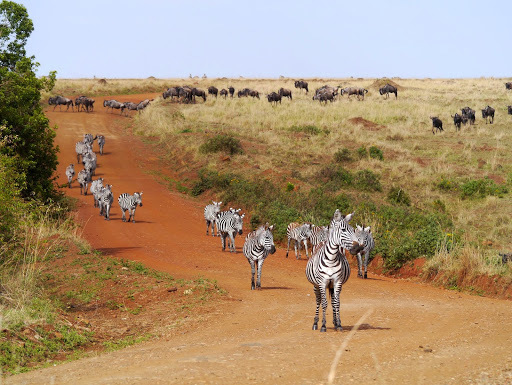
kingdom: Animalia
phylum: Chordata
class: Mammalia
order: Perissodactyla
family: Equidae
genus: Equus
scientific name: Equus quagga
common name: Plains zebra
